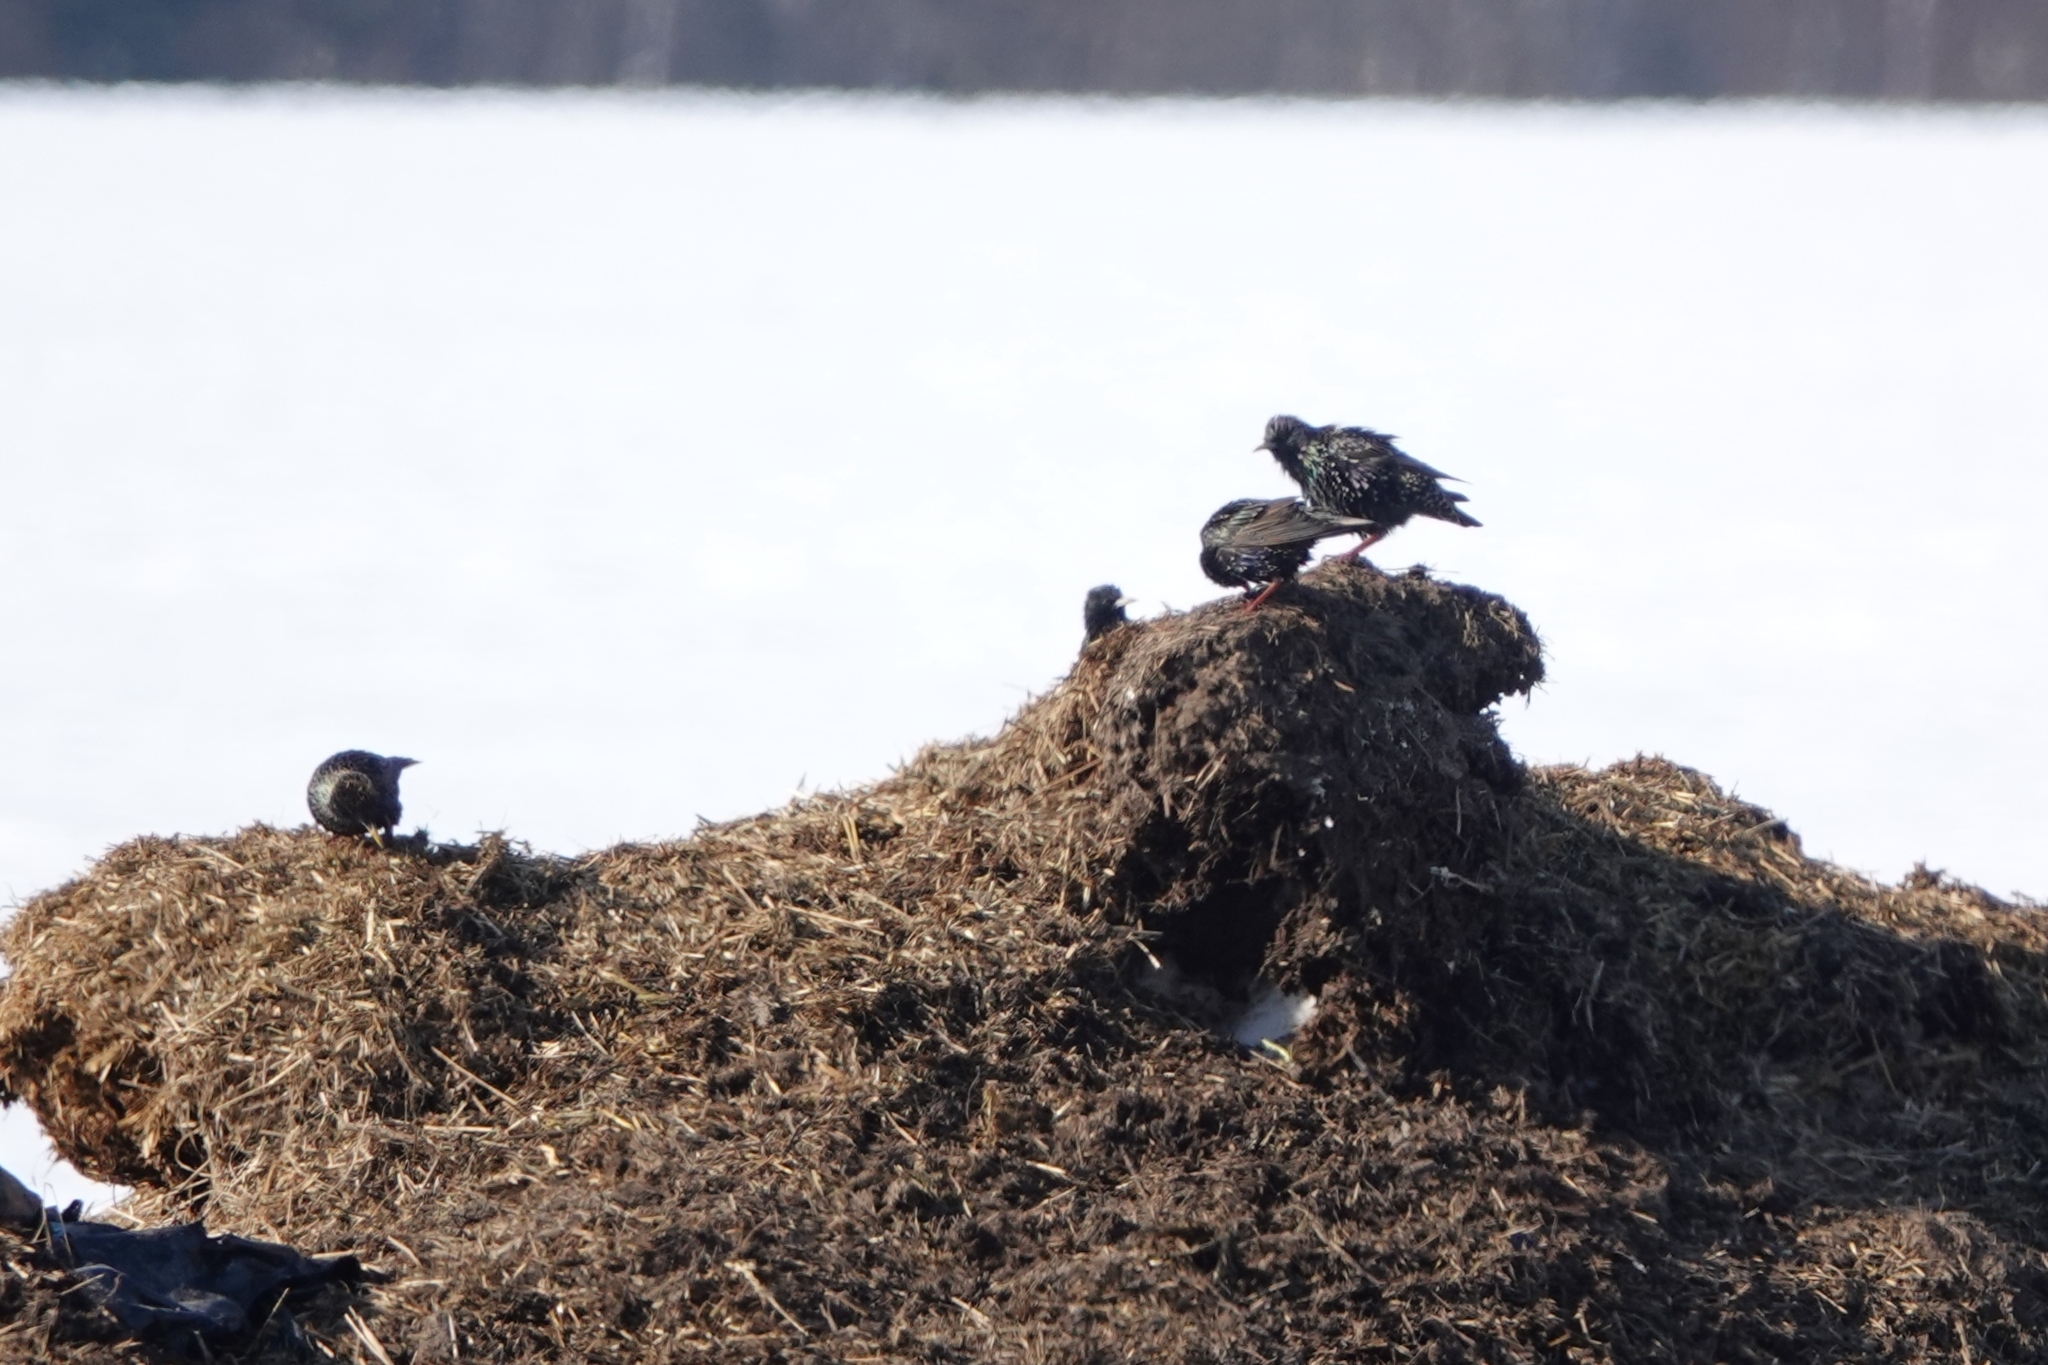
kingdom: Animalia
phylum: Chordata
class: Aves
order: Passeriformes
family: Sturnidae
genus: Sturnus
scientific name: Sturnus vulgaris
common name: Common starling
